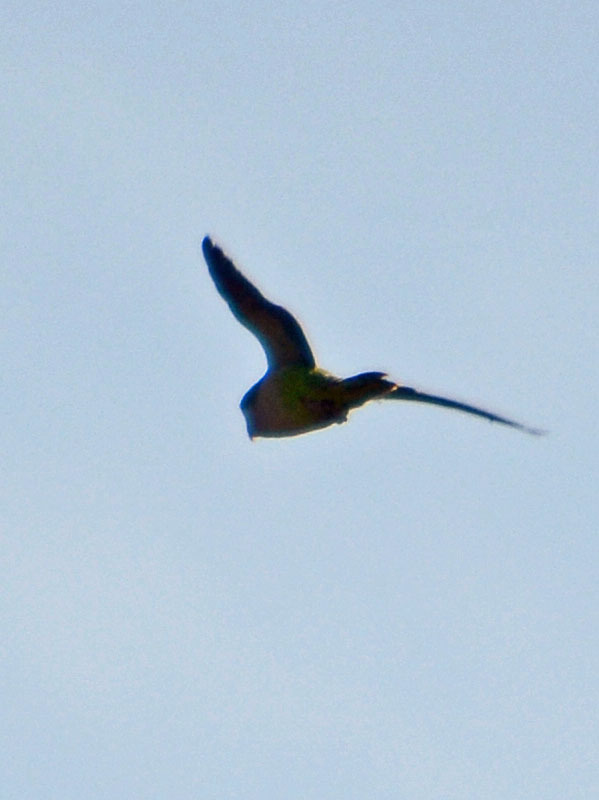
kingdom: Animalia
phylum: Chordata
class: Aves
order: Psittaciformes
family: Psittacidae
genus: Myiopsitta
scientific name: Myiopsitta monachus
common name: Monk parakeet
